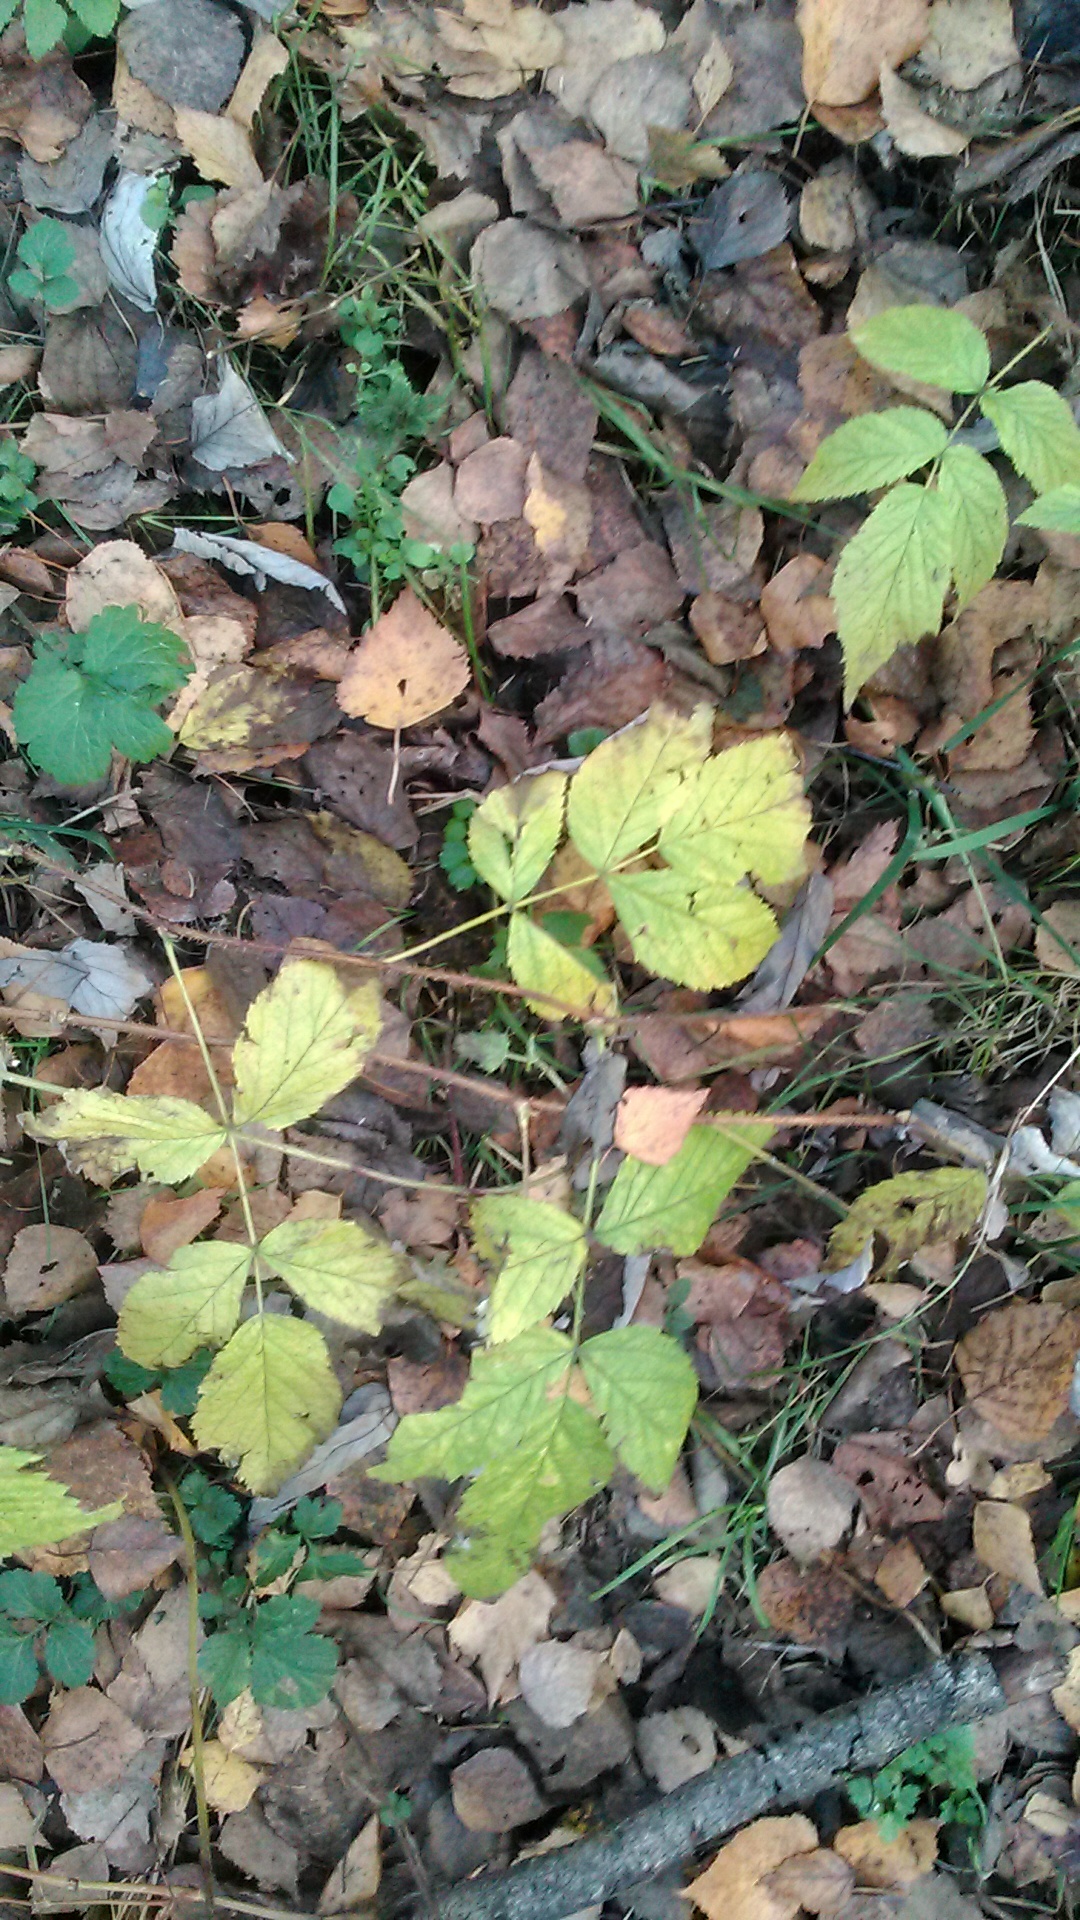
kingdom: Plantae
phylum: Tracheophyta
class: Magnoliopsida
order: Rosales
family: Rosaceae
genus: Rubus
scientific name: Rubus idaeus
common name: Raspberry
